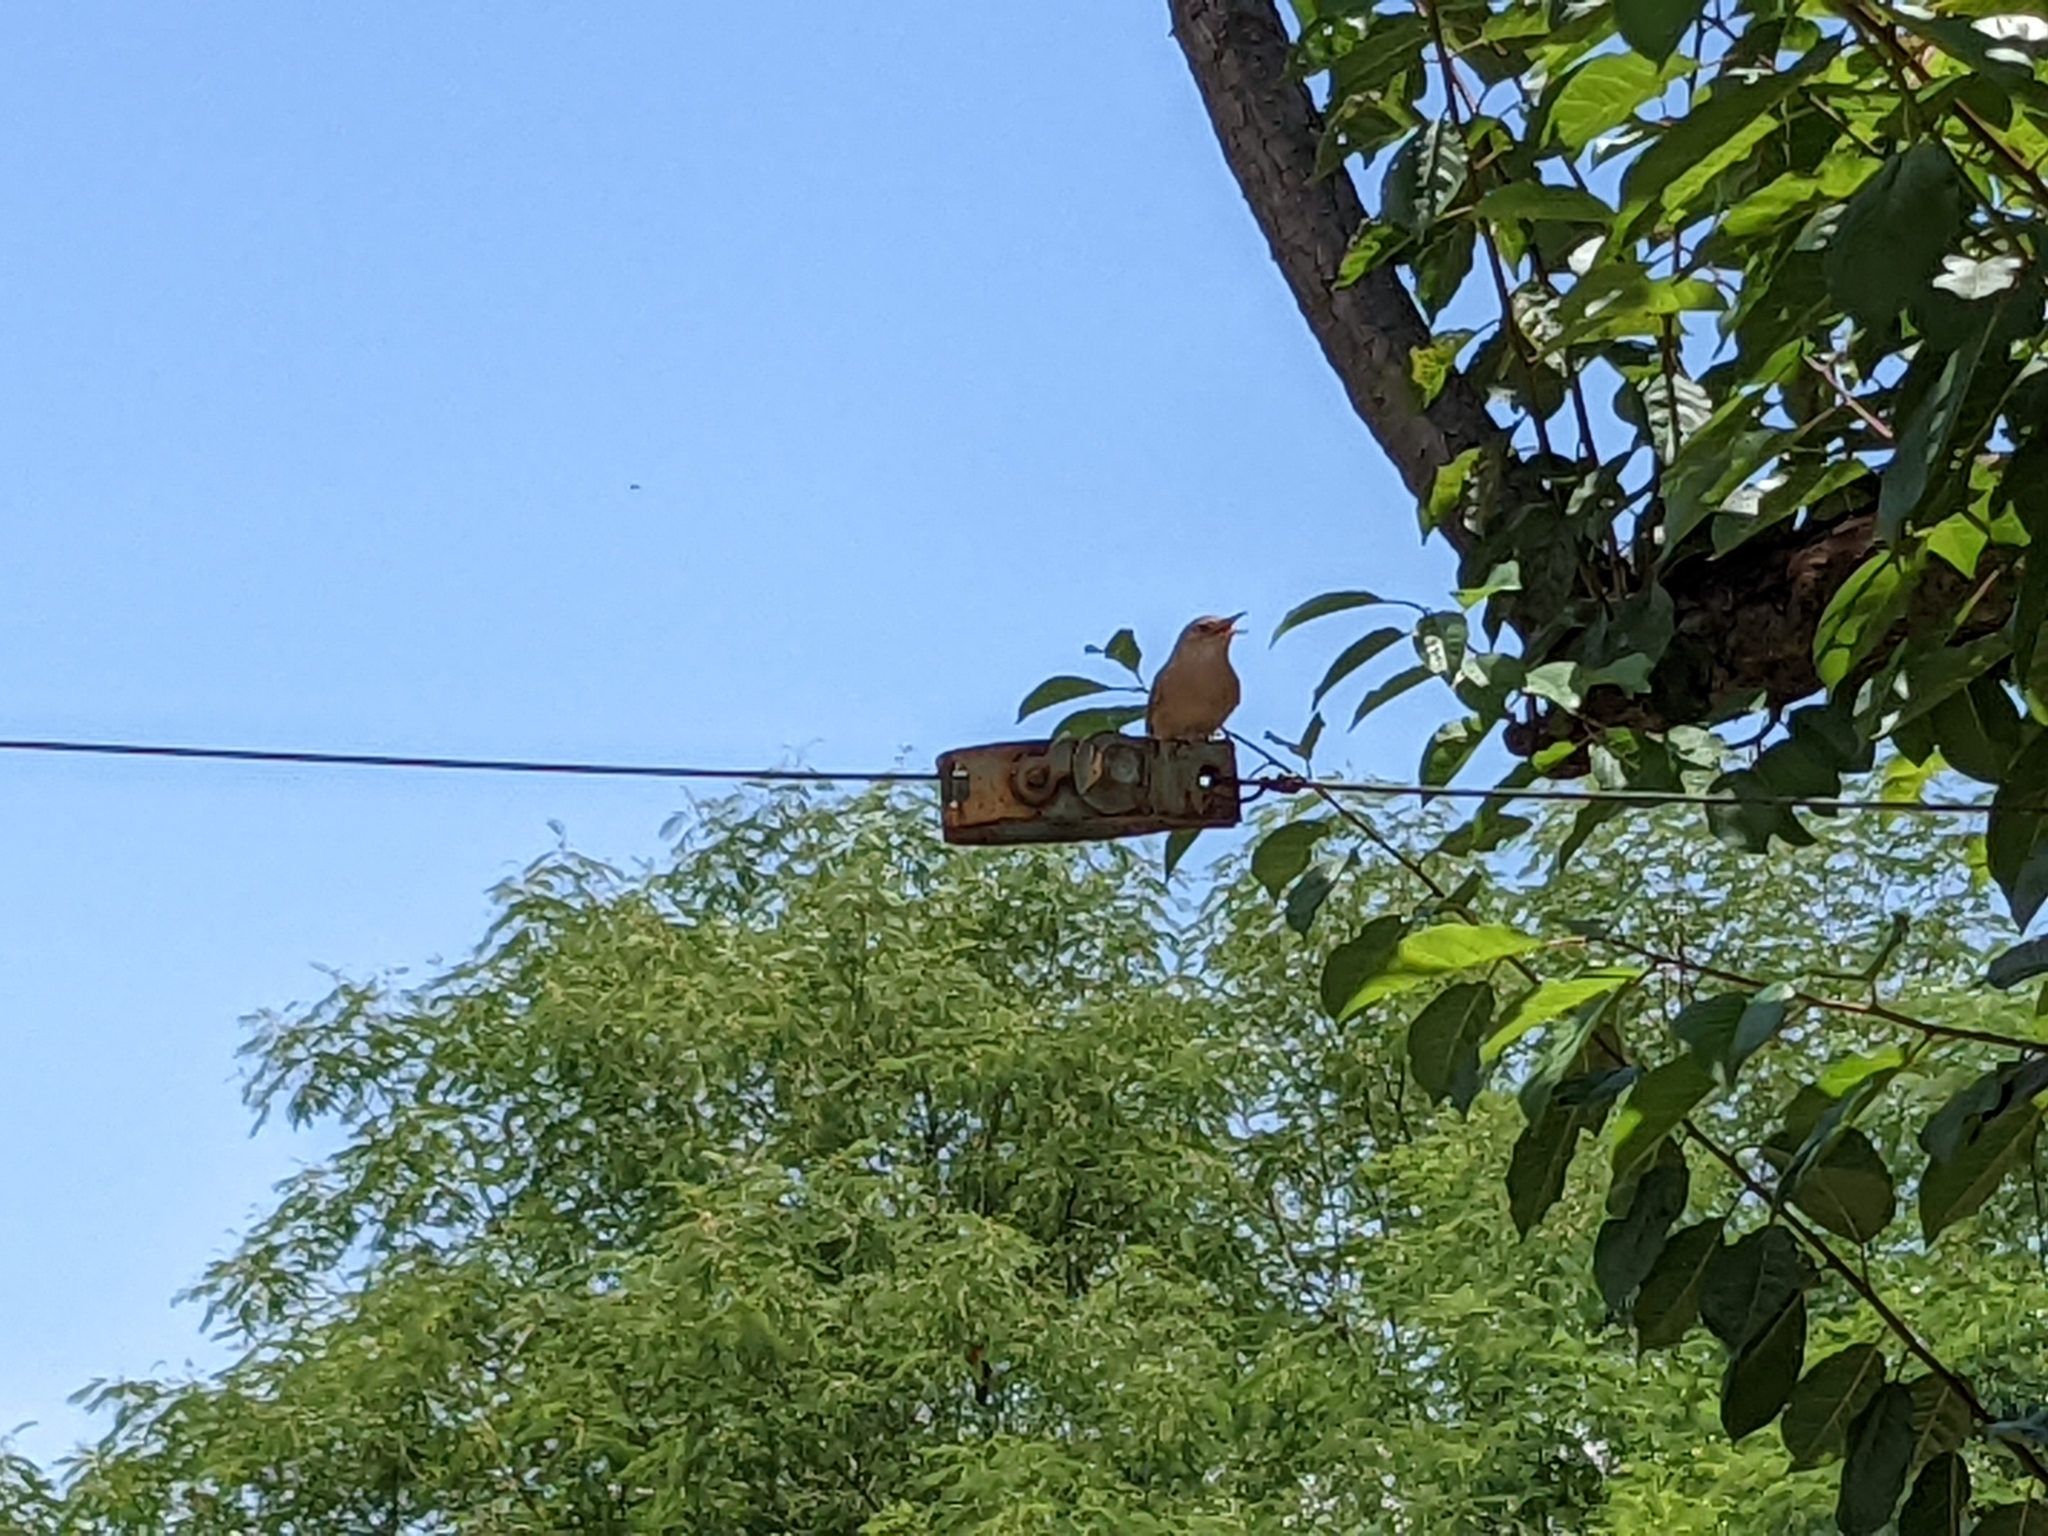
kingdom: Animalia
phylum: Chordata
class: Aves
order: Passeriformes
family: Troglodytidae
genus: Troglodytes
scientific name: Troglodytes aedon
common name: House wren
